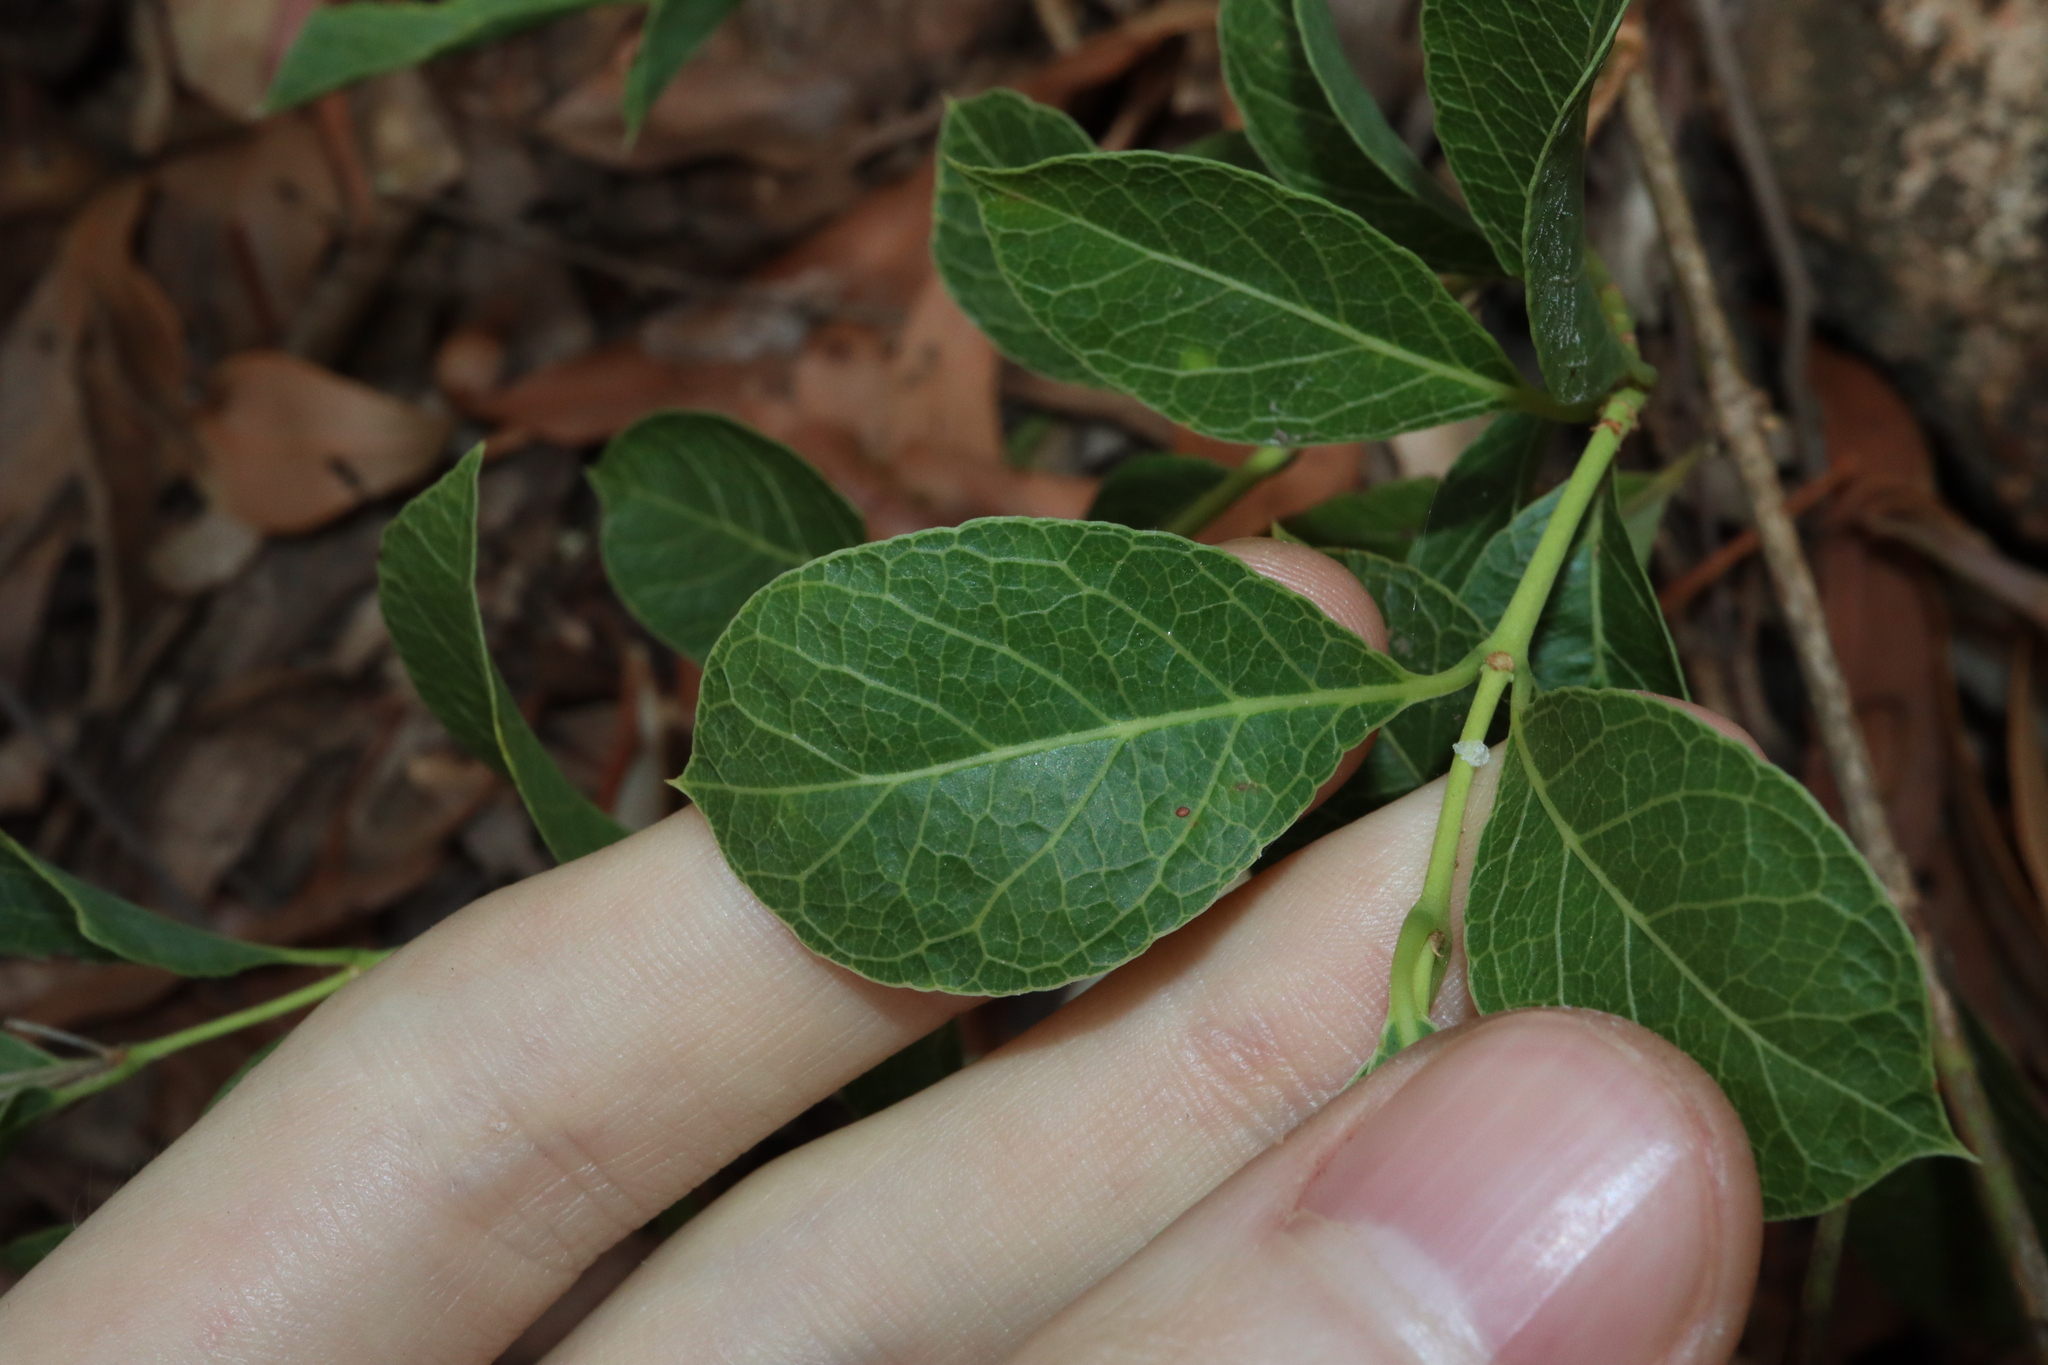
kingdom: Plantae
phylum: Tracheophyta
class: Magnoliopsida
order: Gentianales
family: Rubiaceae
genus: Coelospermum
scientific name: Coelospermum reticulatum
